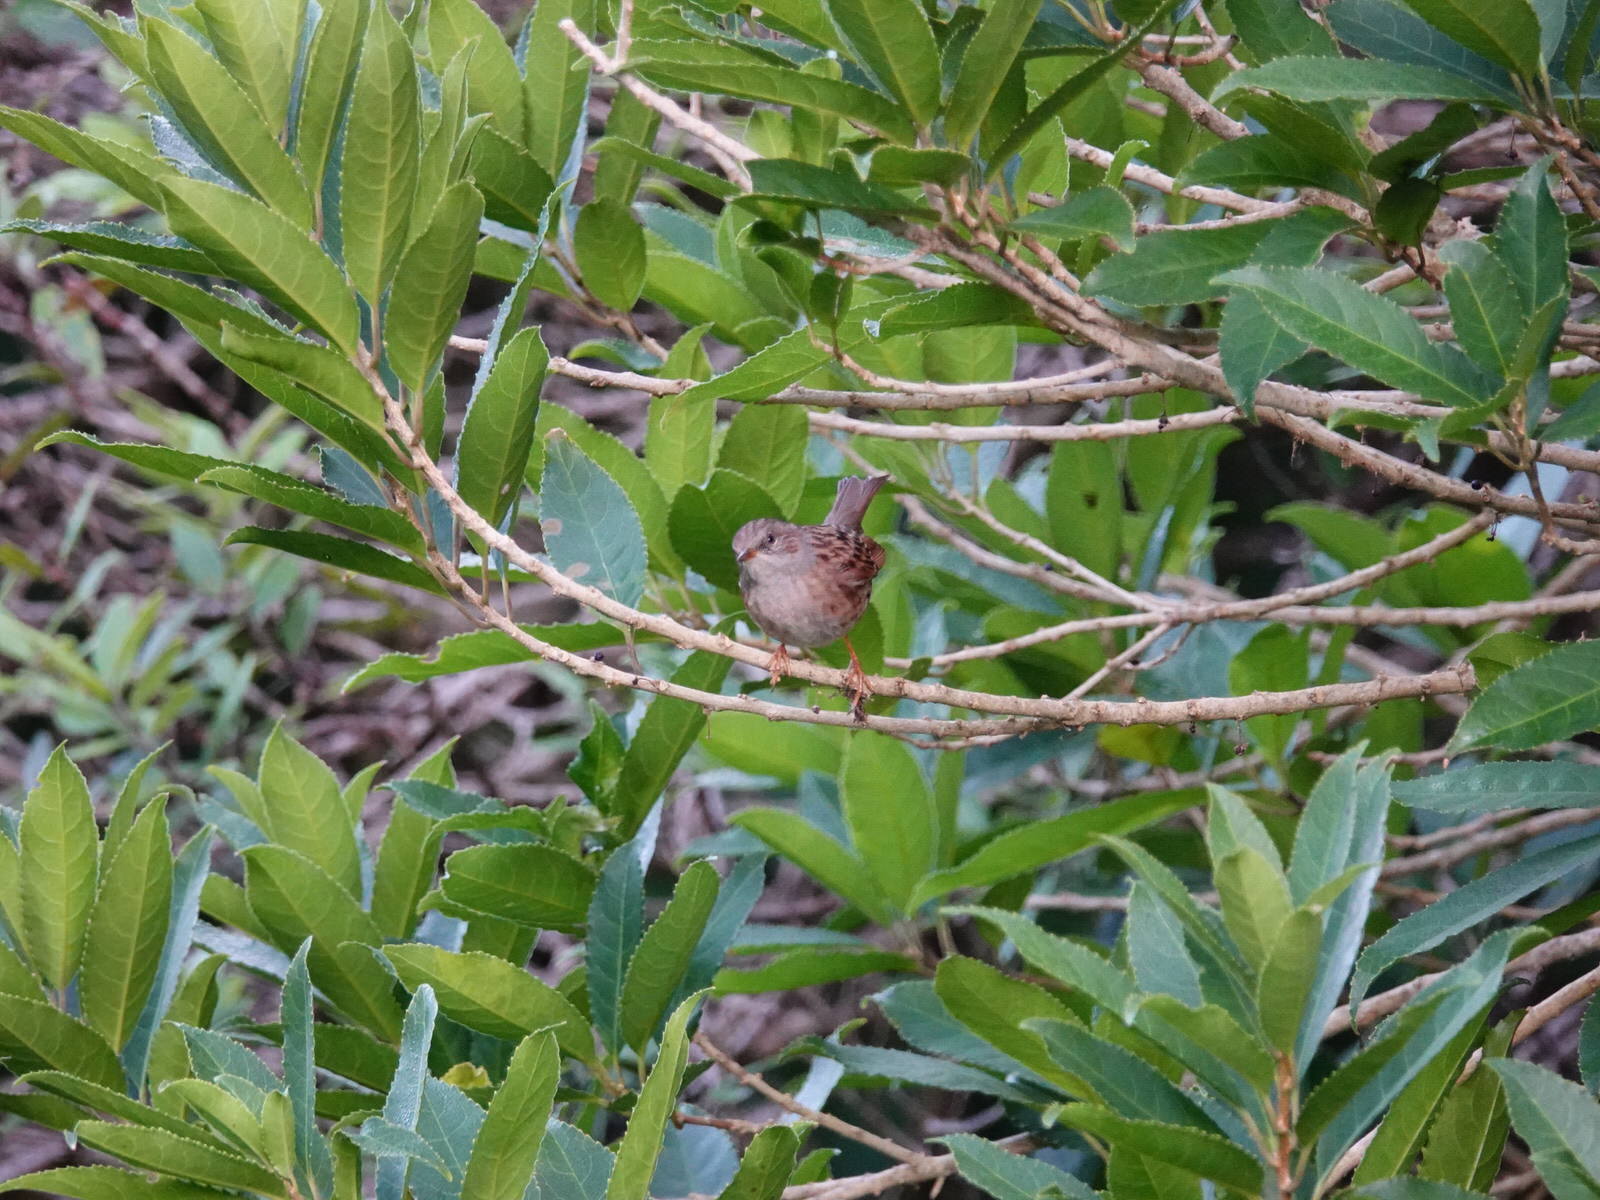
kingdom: Animalia
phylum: Chordata
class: Aves
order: Passeriformes
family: Prunellidae
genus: Prunella
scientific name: Prunella modularis
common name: Dunnock
